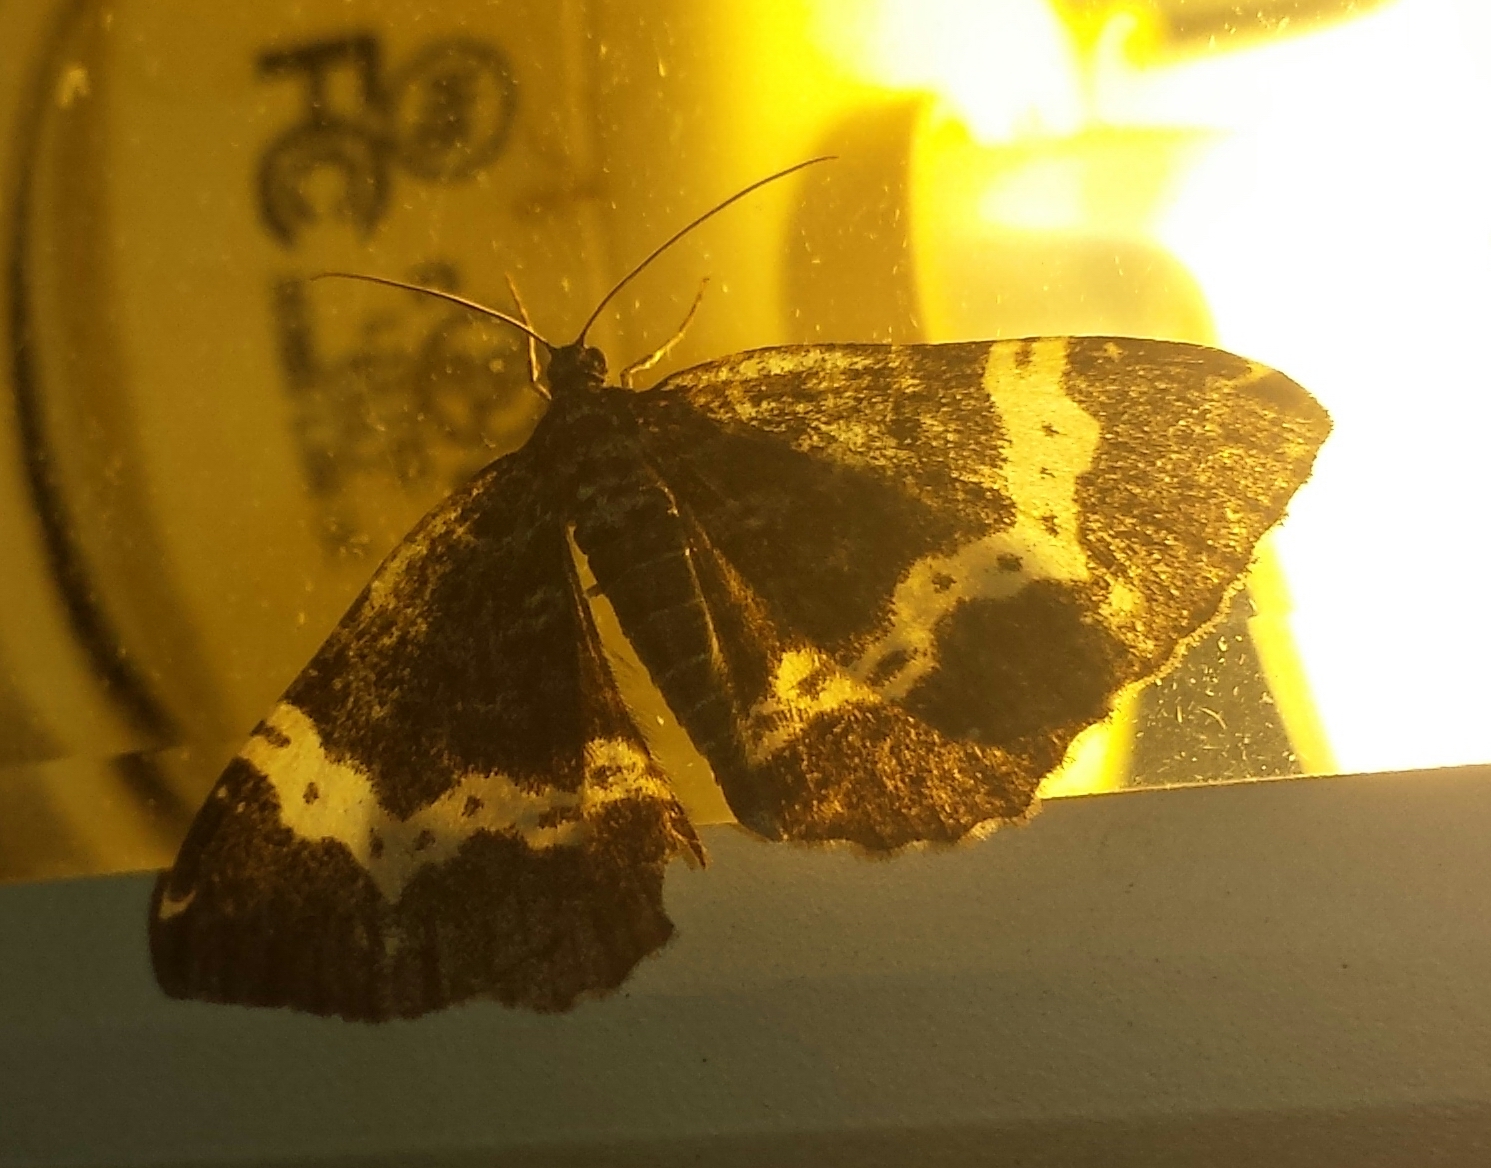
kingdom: Animalia
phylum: Arthropoda
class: Insecta
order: Lepidoptera
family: Geometridae
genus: Rheumaptera
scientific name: Rheumaptera
